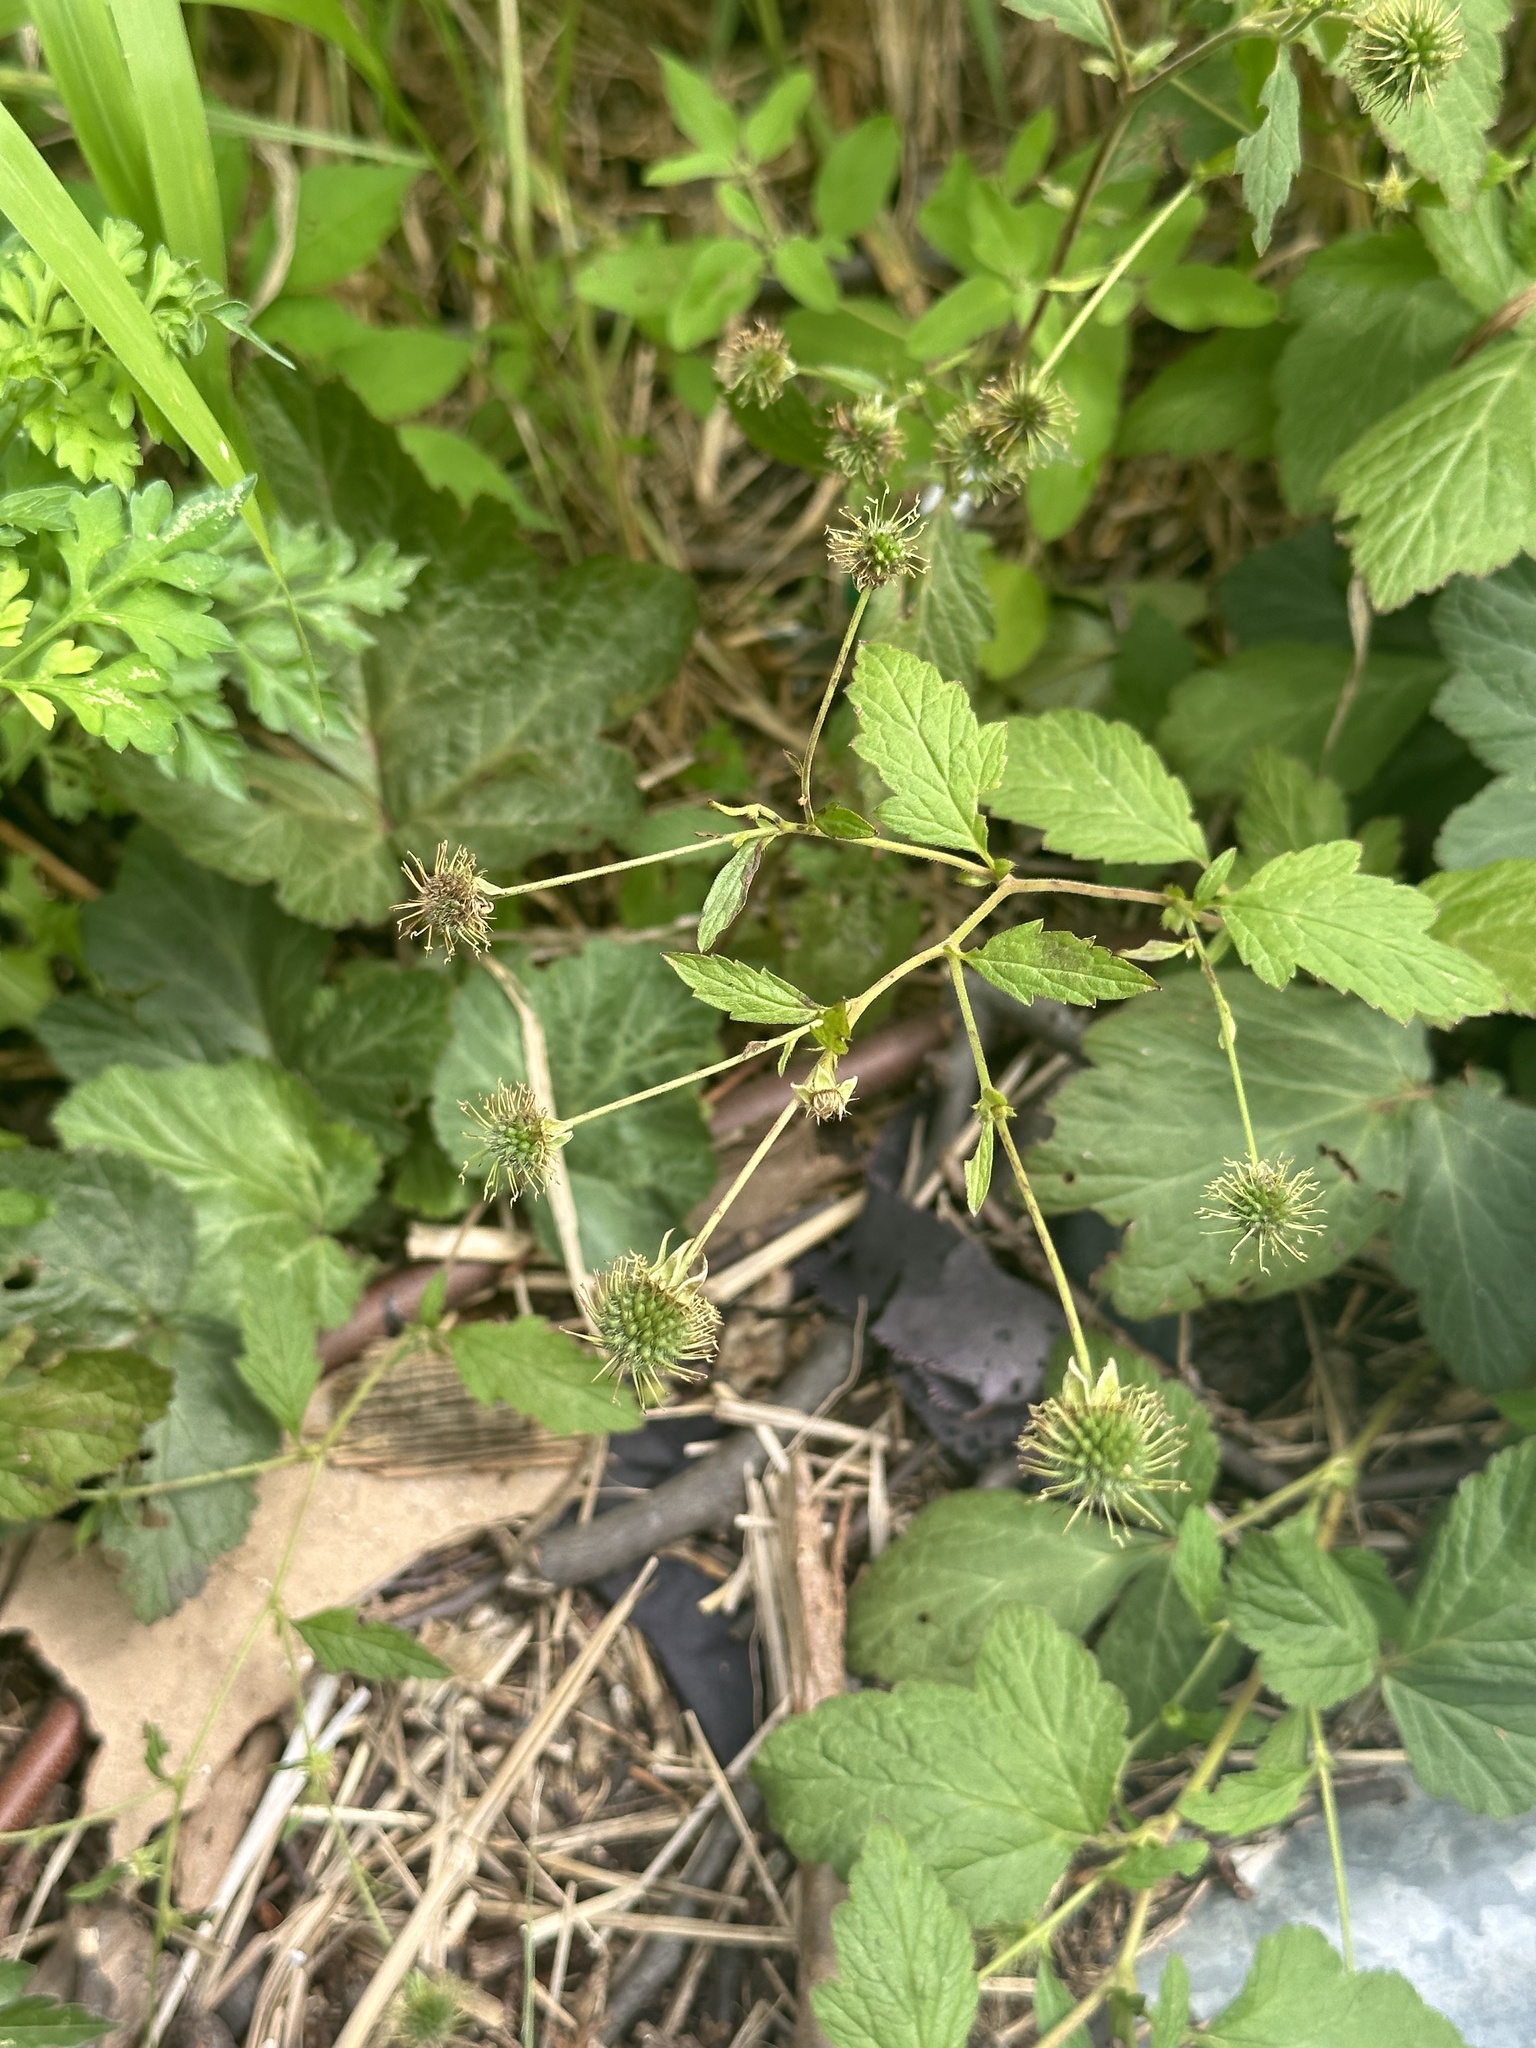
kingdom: Plantae
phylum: Tracheophyta
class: Magnoliopsida
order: Rosales
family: Rosaceae
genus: Geum
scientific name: Geum canadense
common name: White avens
